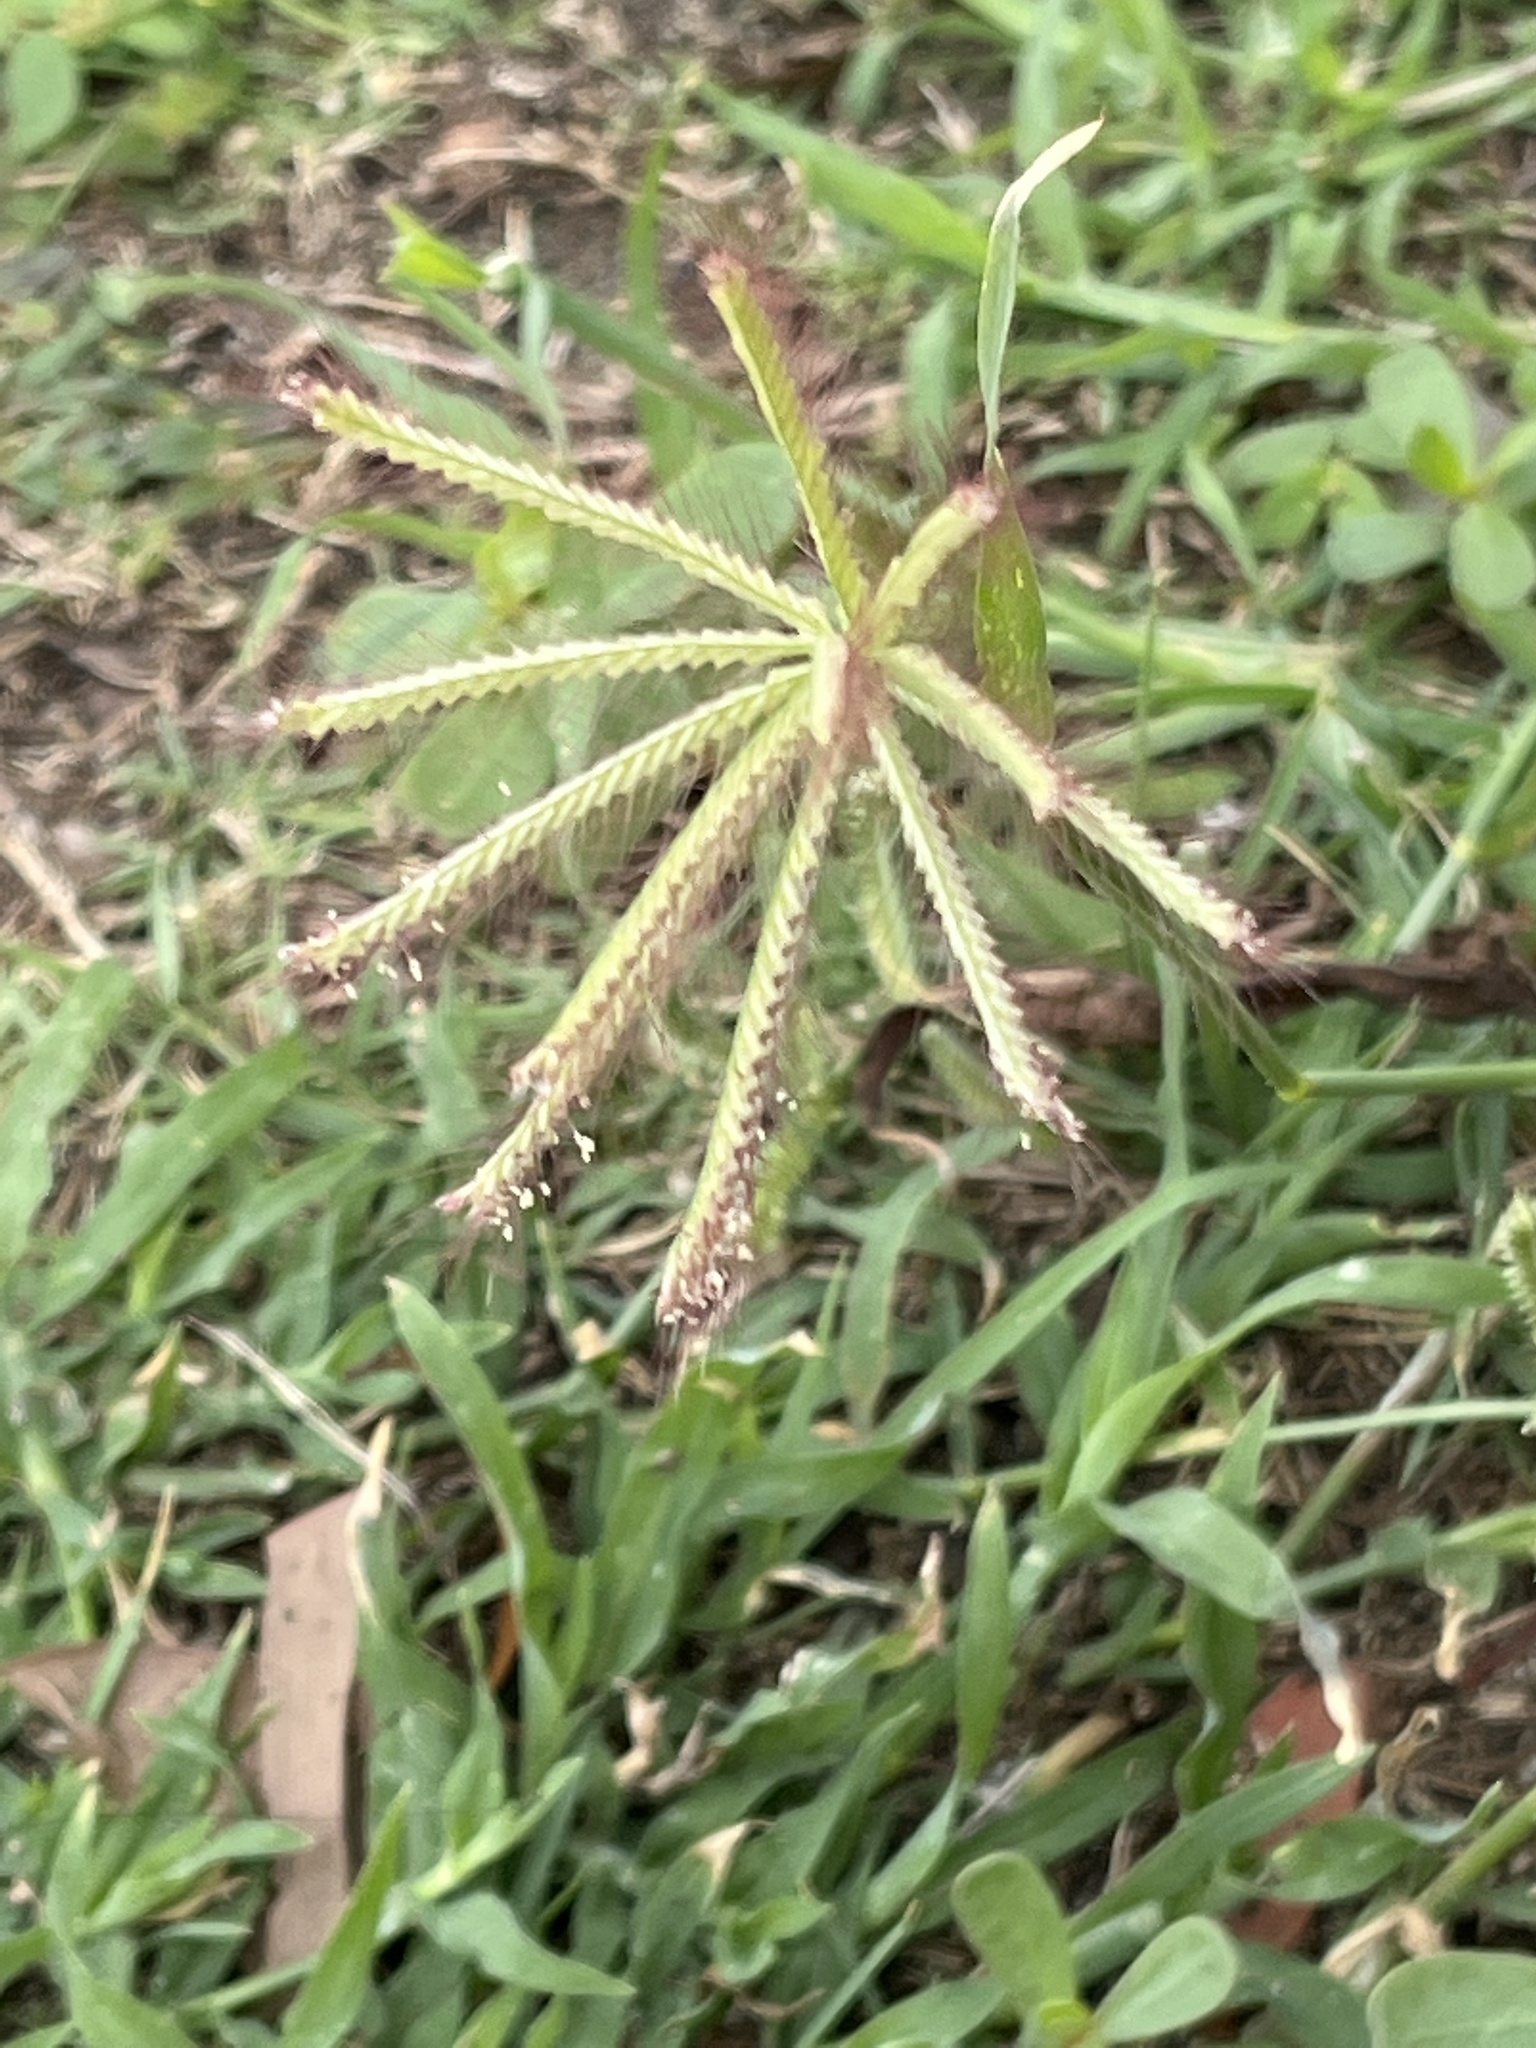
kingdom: Plantae
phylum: Tracheophyta
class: Liliopsida
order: Poales
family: Poaceae
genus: Chloris
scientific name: Chloris barbata
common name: Swollen fingergrass
